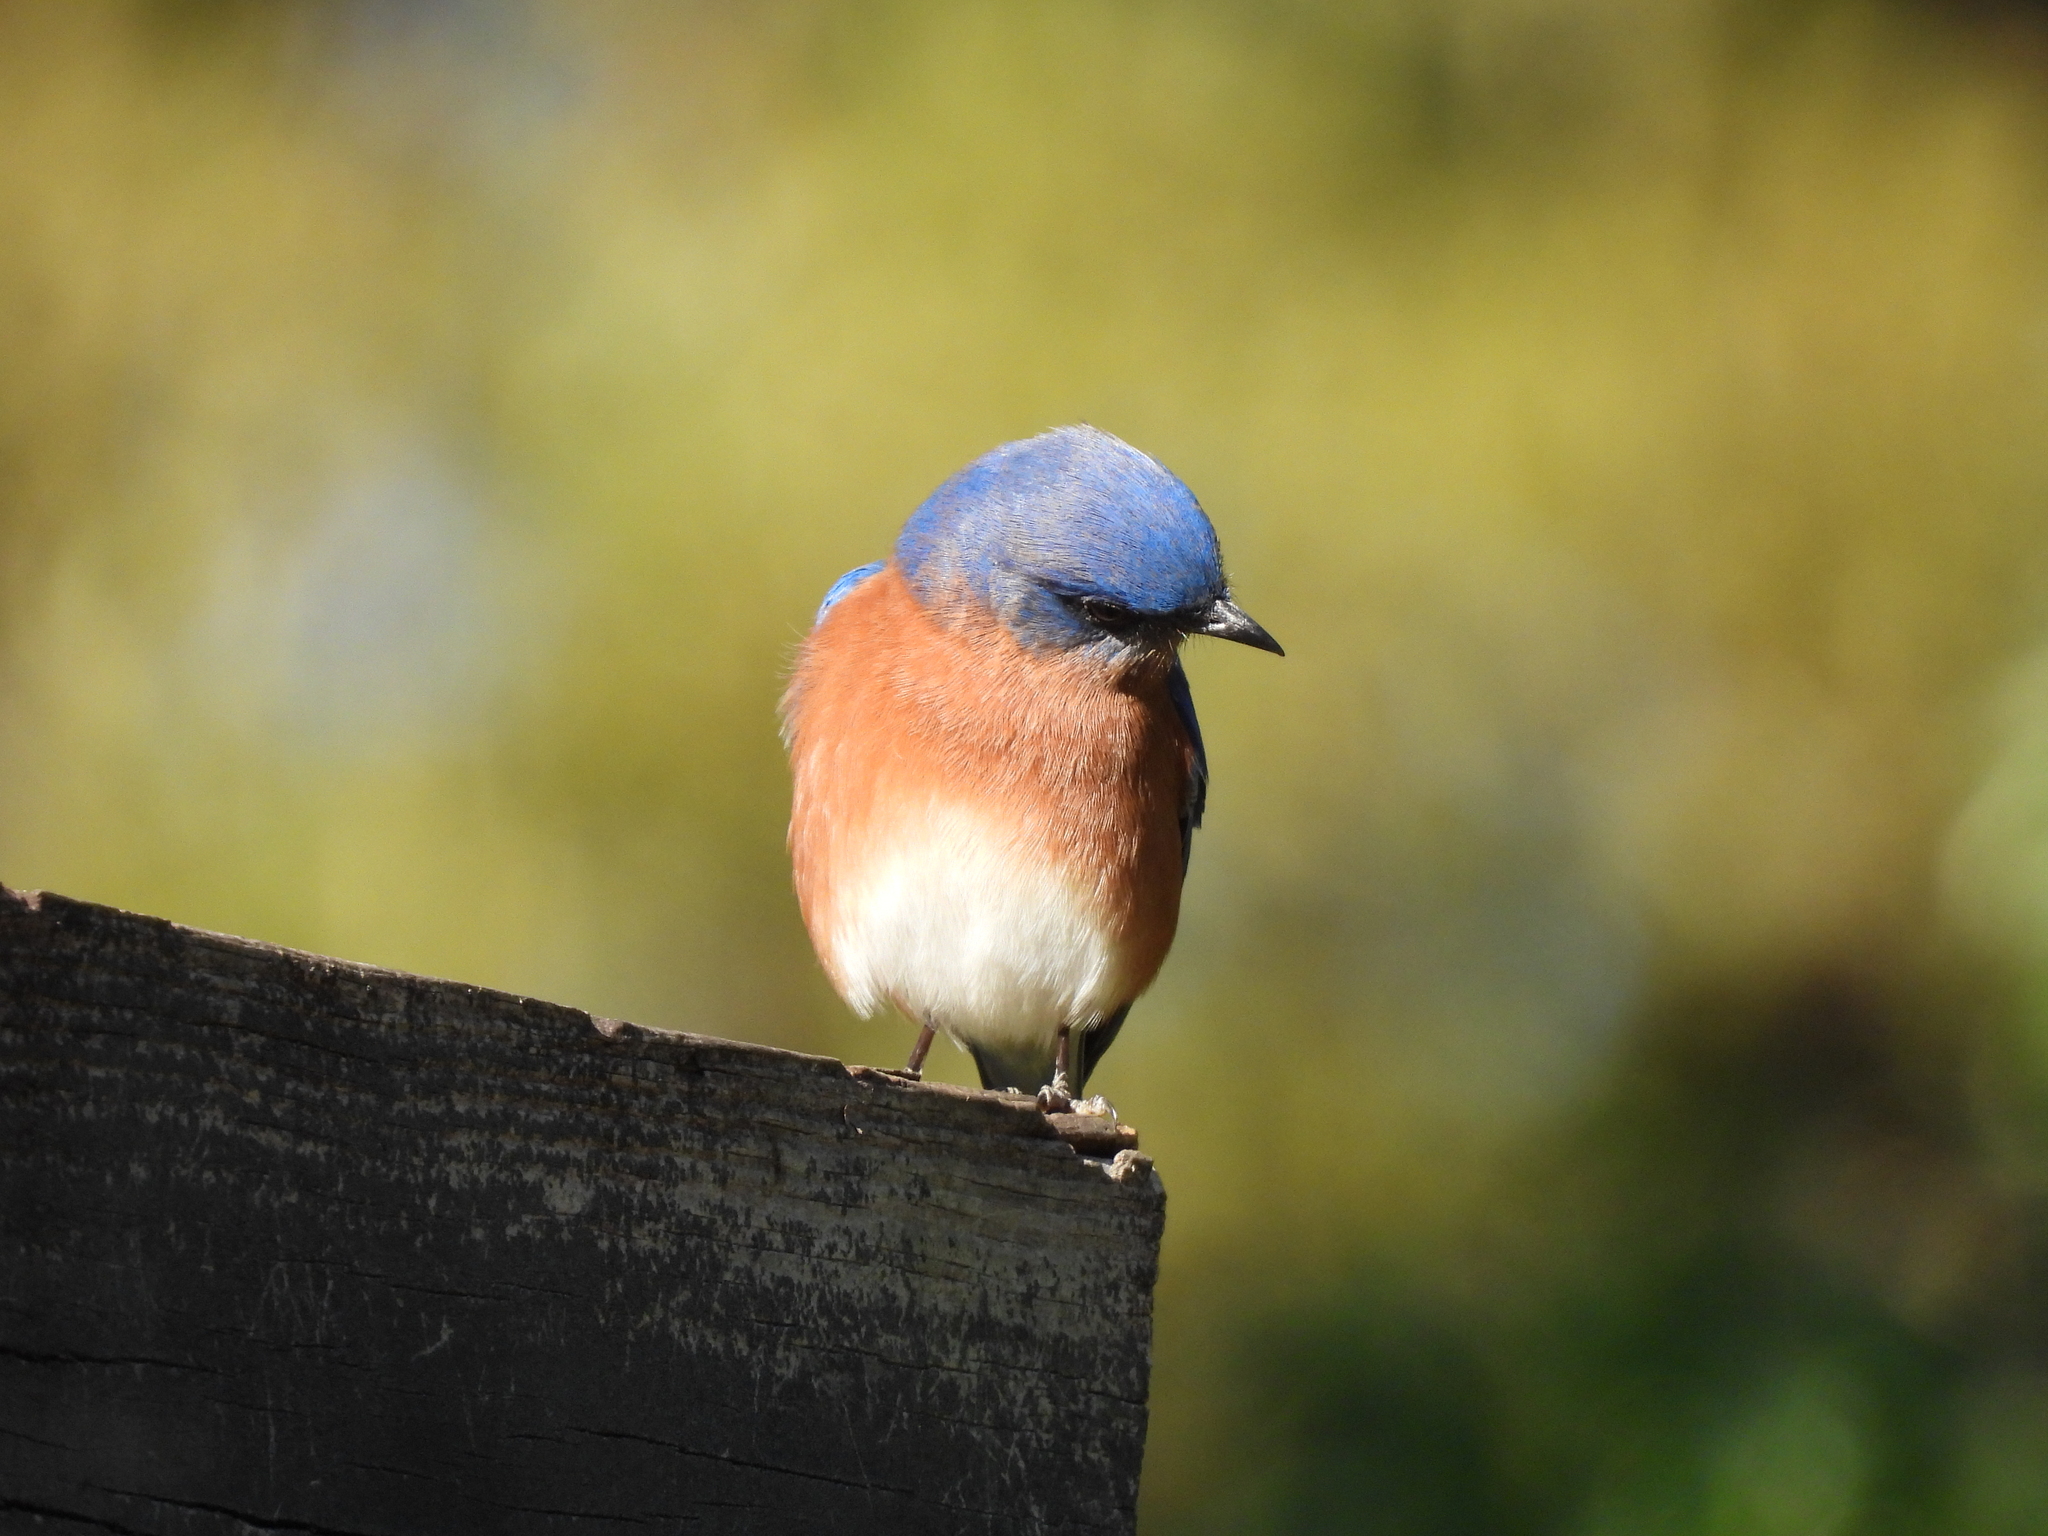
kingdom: Animalia
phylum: Chordata
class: Aves
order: Passeriformes
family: Turdidae
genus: Sialia
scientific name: Sialia sialis
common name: Eastern bluebird
